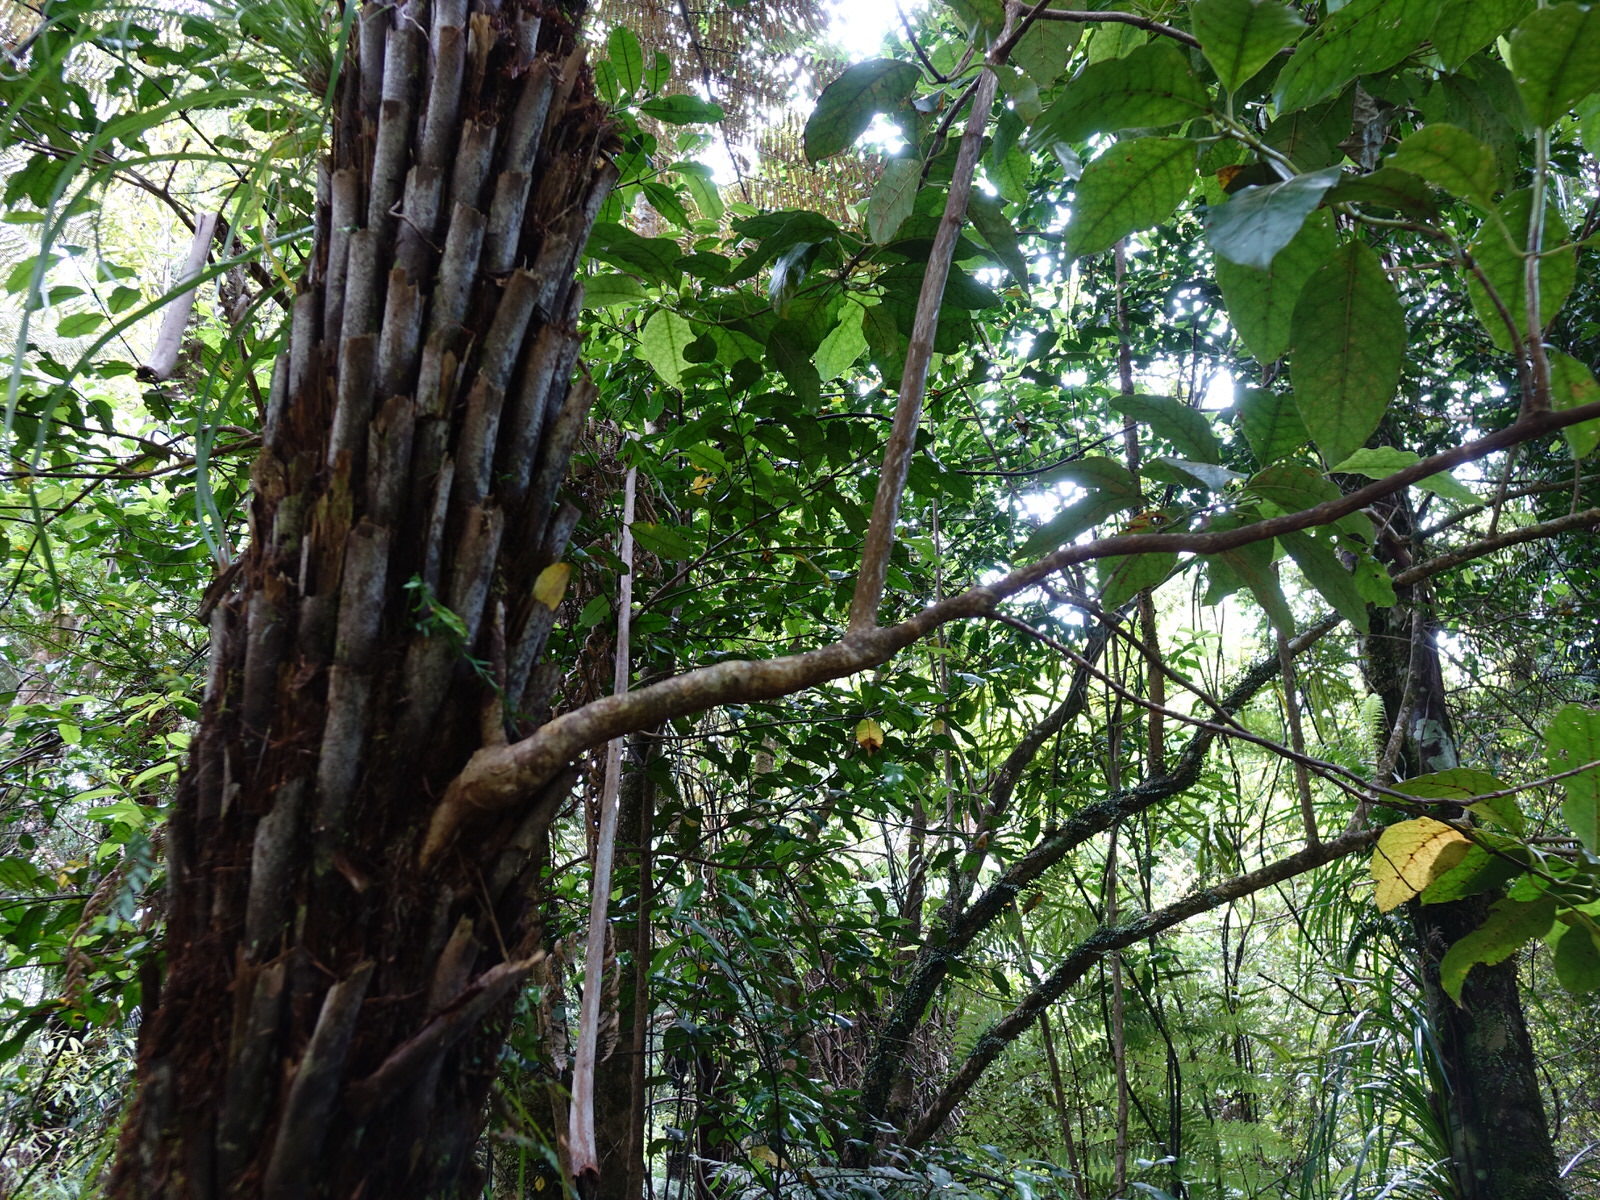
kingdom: Plantae
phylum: Tracheophyta
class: Magnoliopsida
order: Gentianales
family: Rubiaceae
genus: Coprosma
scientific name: Coprosma autumnalis
